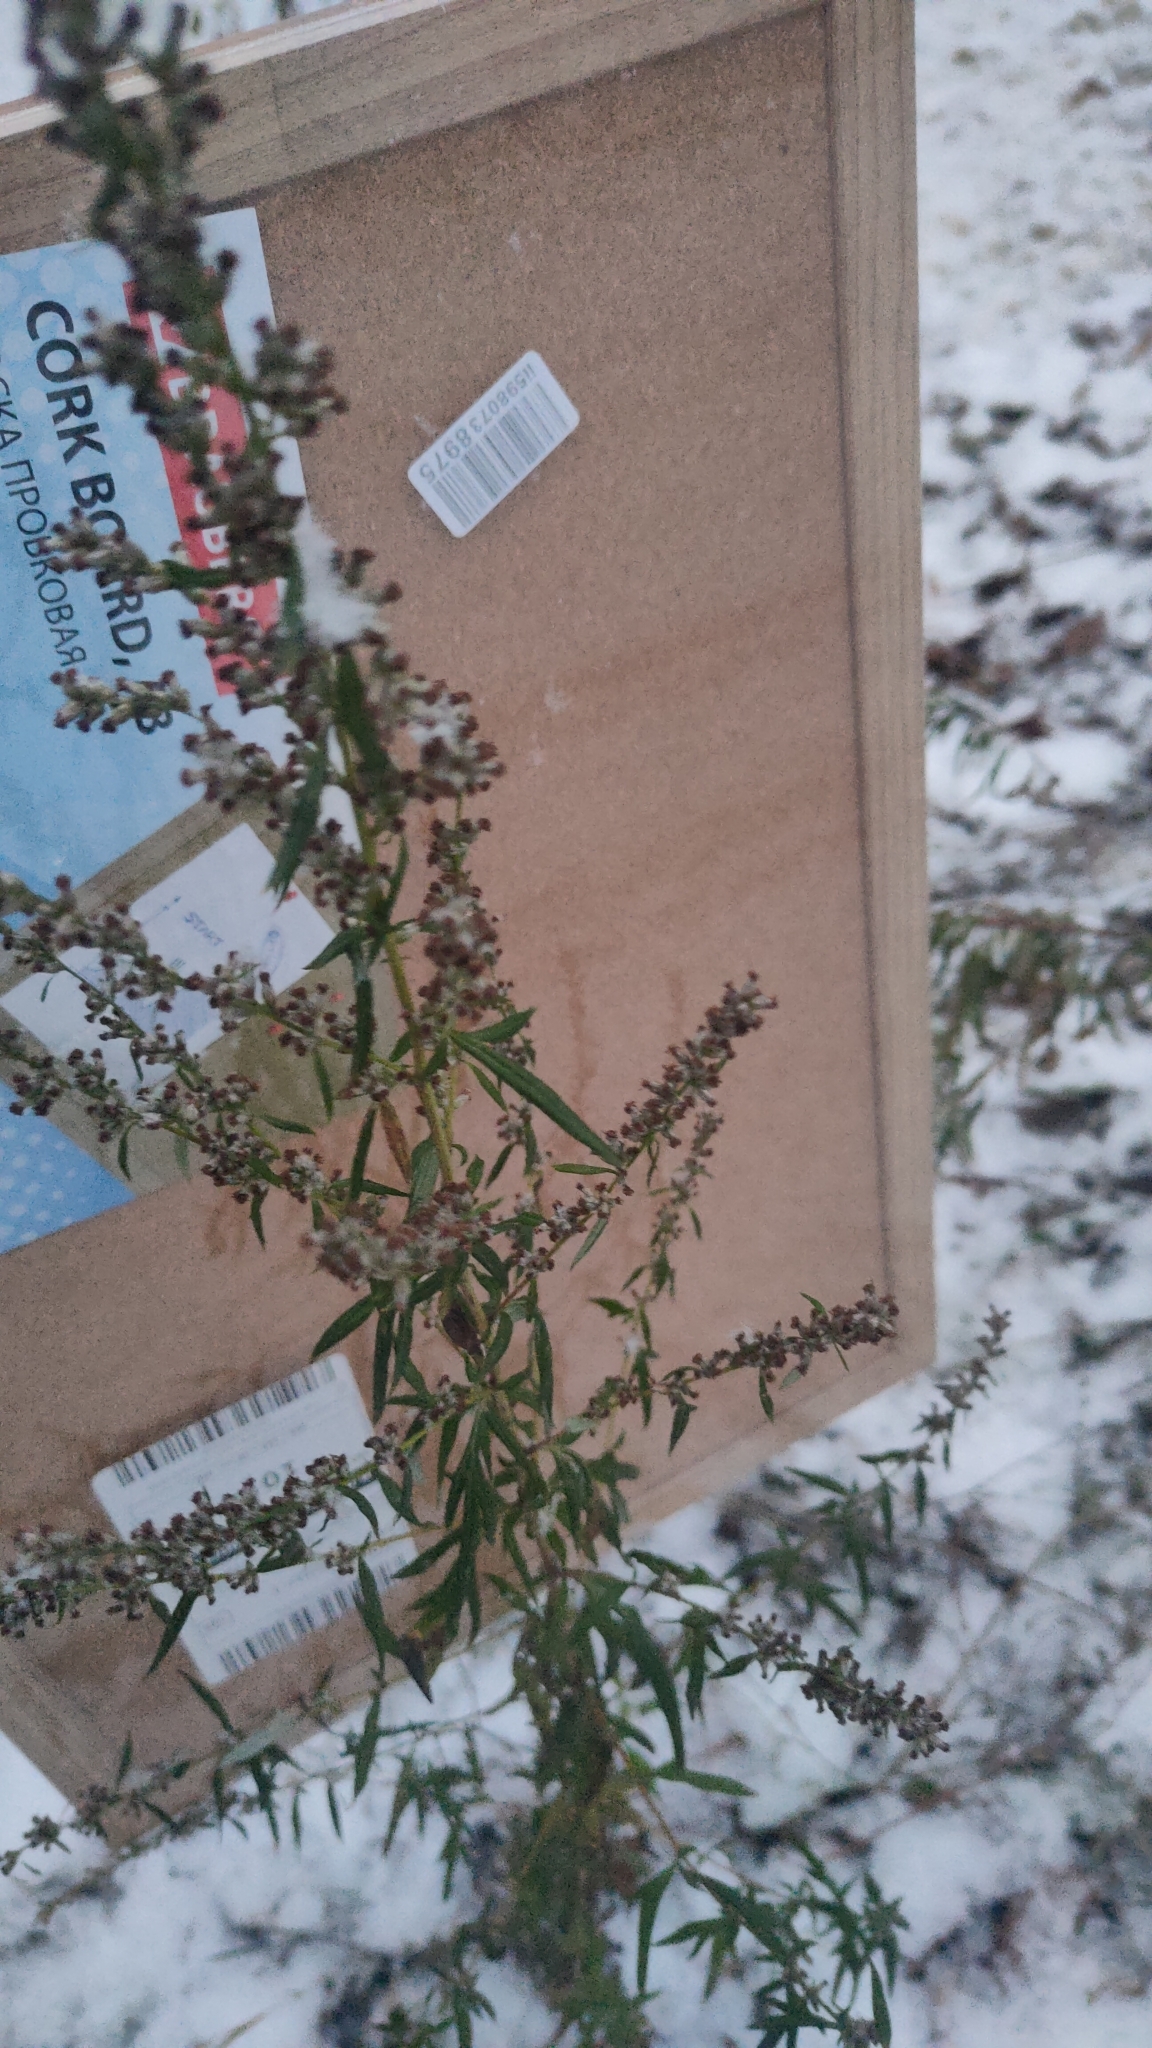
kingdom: Plantae
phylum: Tracheophyta
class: Magnoliopsida
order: Asterales
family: Asteraceae
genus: Artemisia
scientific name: Artemisia vulgaris
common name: Mugwort
